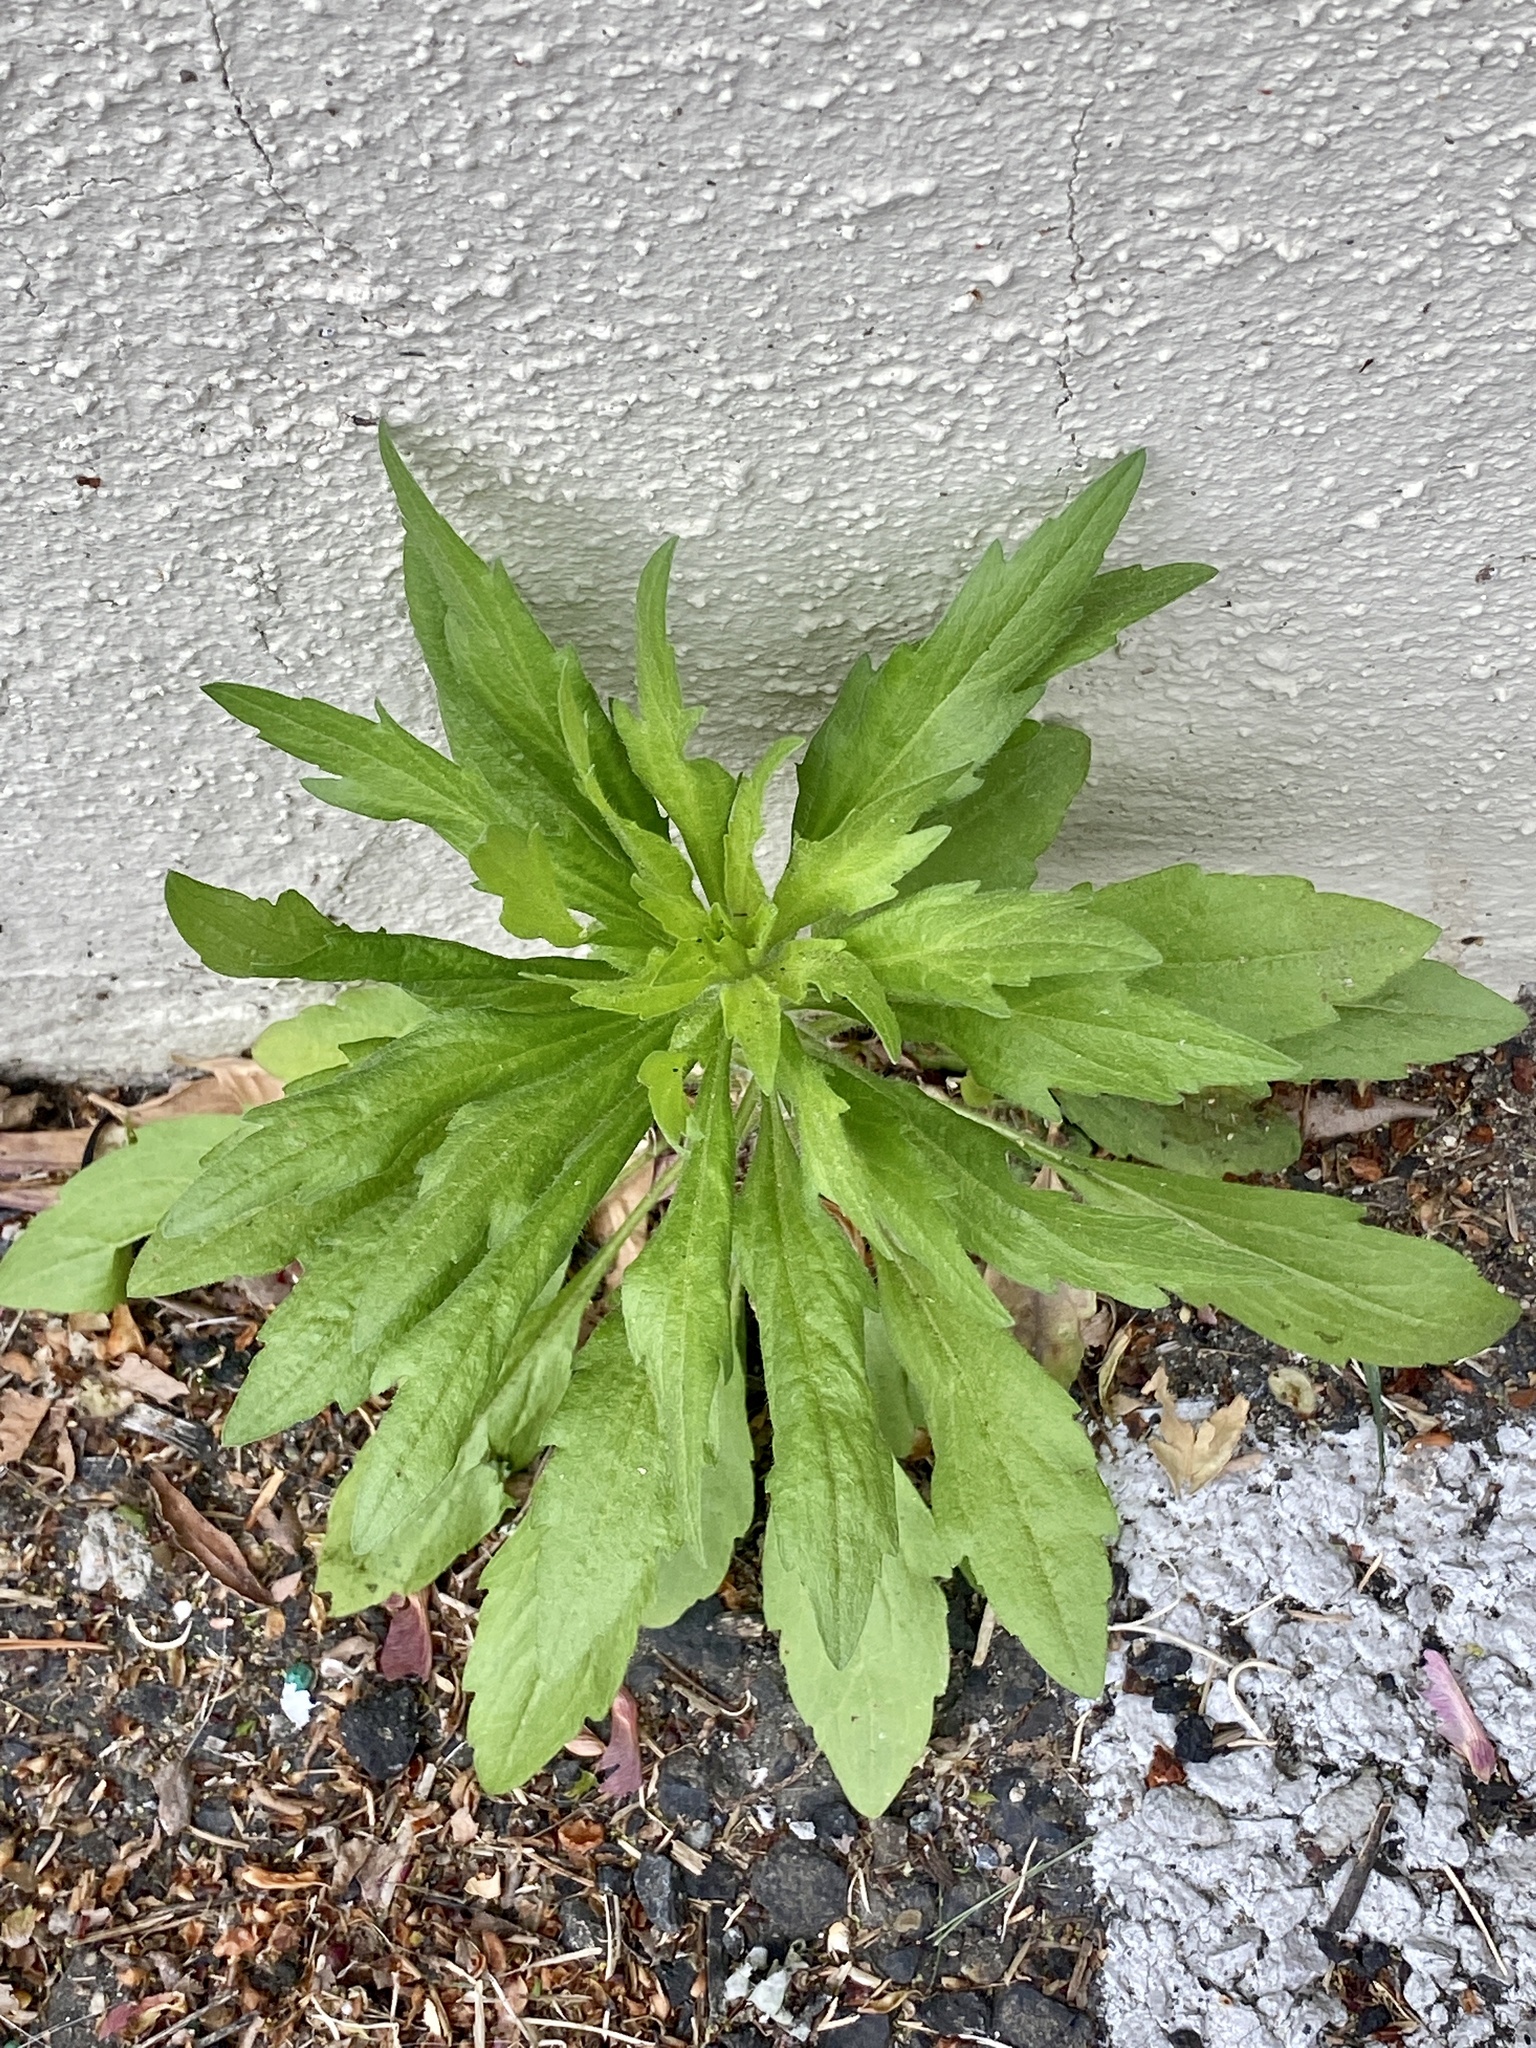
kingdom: Plantae
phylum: Tracheophyta
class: Magnoliopsida
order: Asterales
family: Asteraceae
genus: Erigeron
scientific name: Erigeron canadensis
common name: Canadian fleabane
